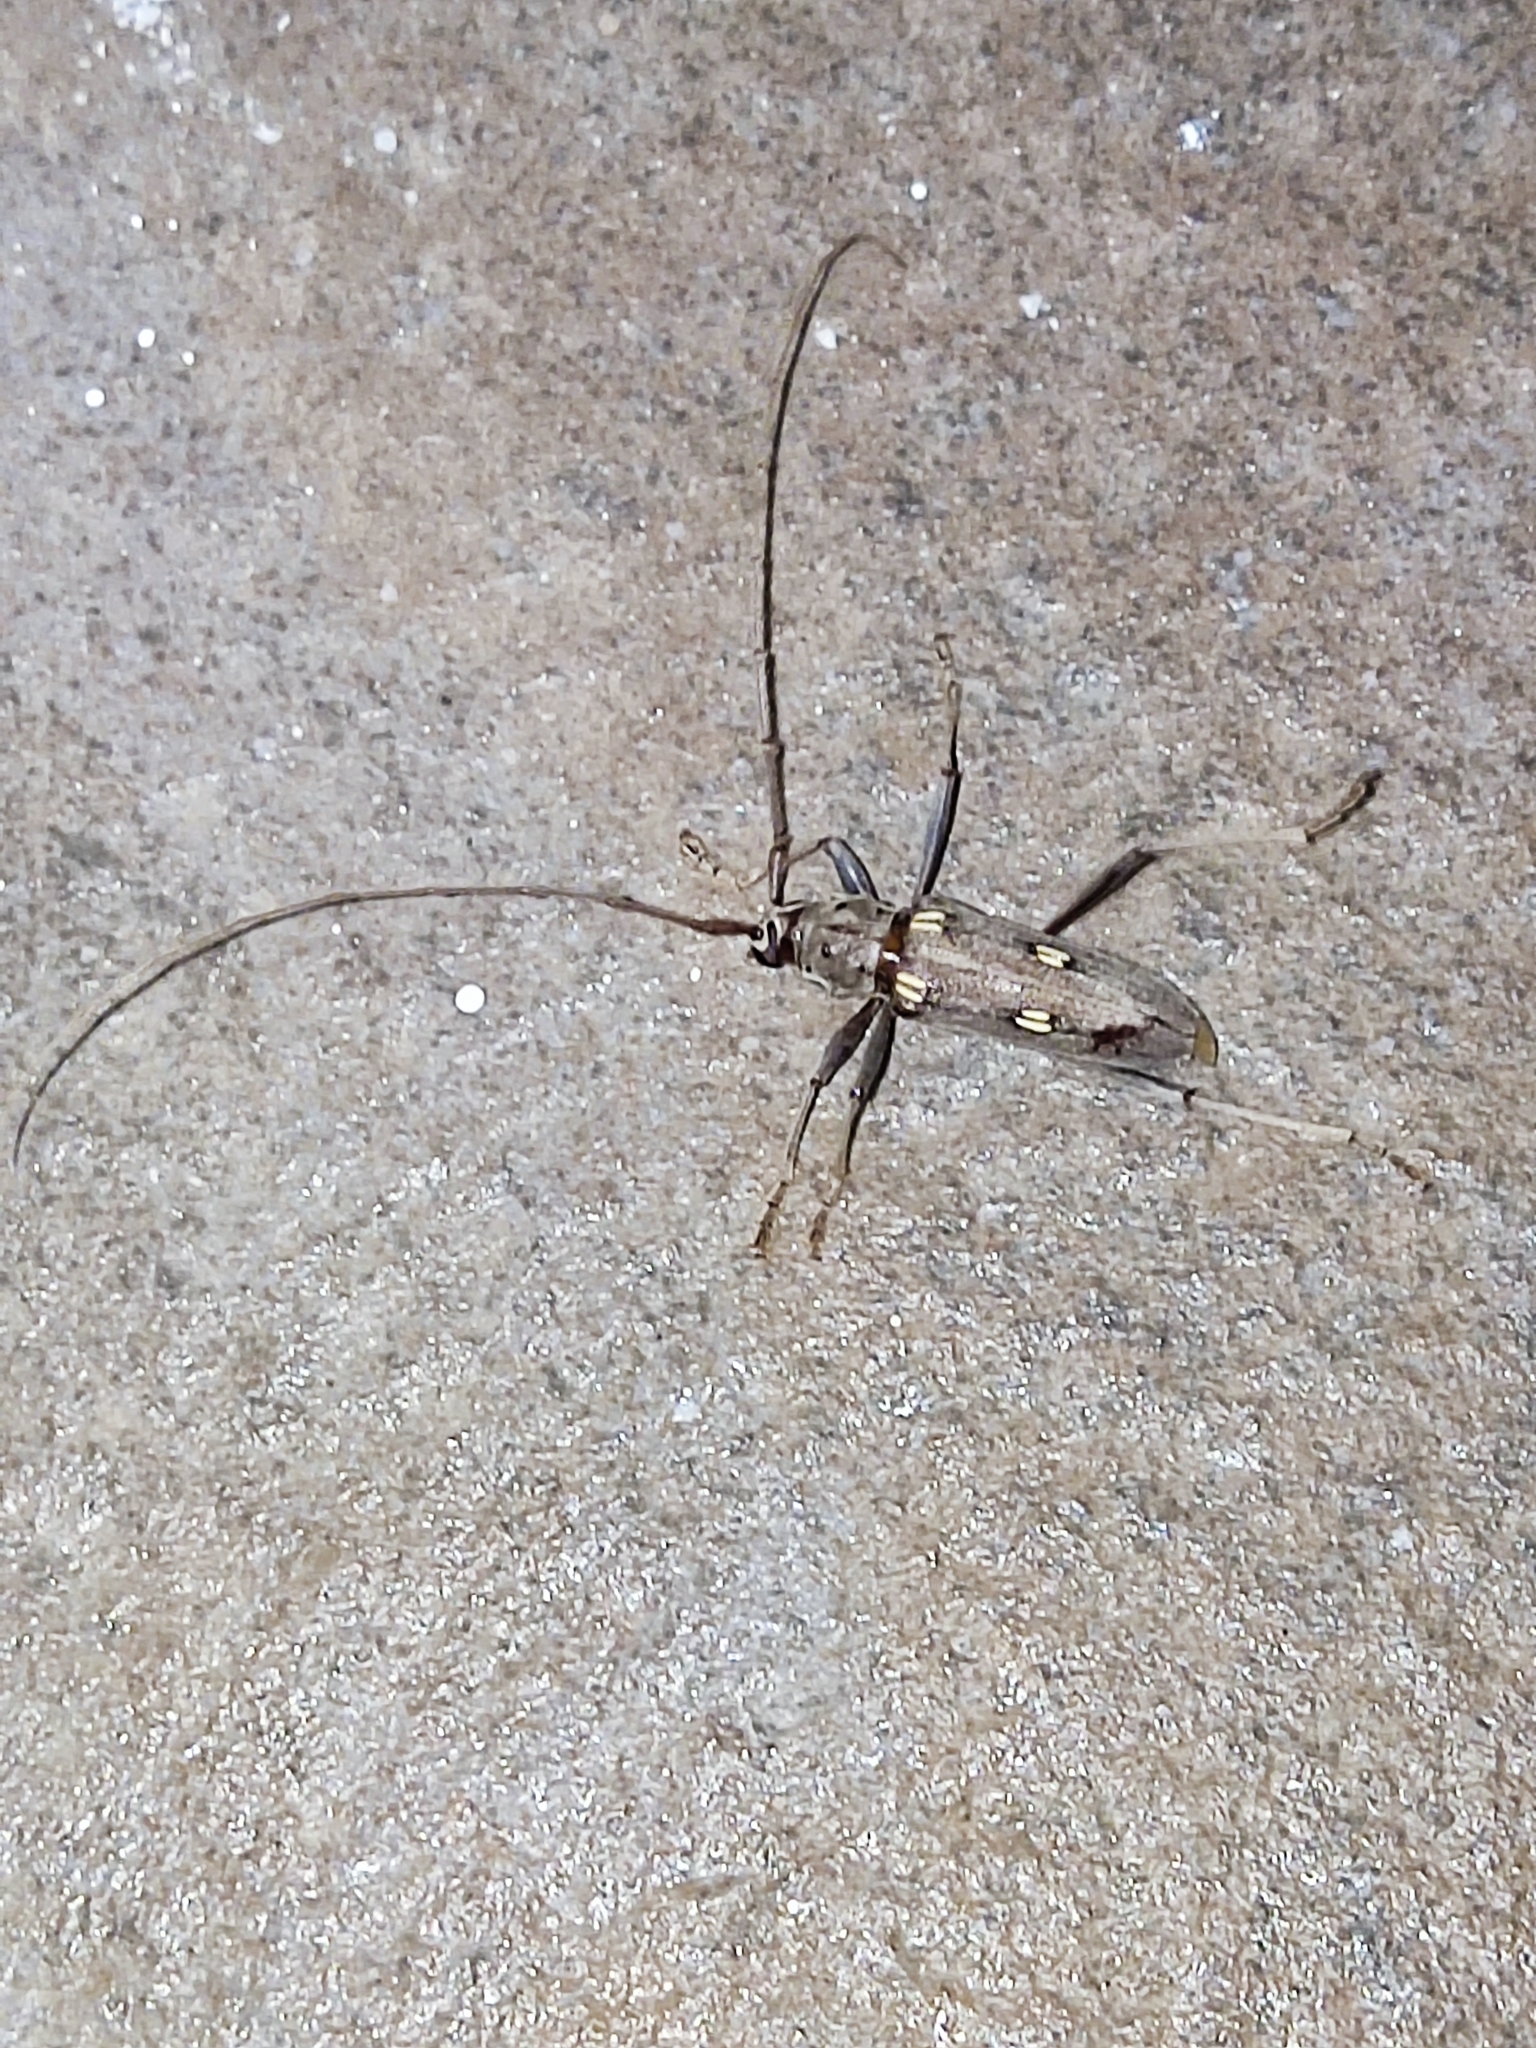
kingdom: Animalia
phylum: Arthropoda
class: Insecta
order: Coleoptera
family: Cerambycidae
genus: Eburia
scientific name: Eburia bonairensis
